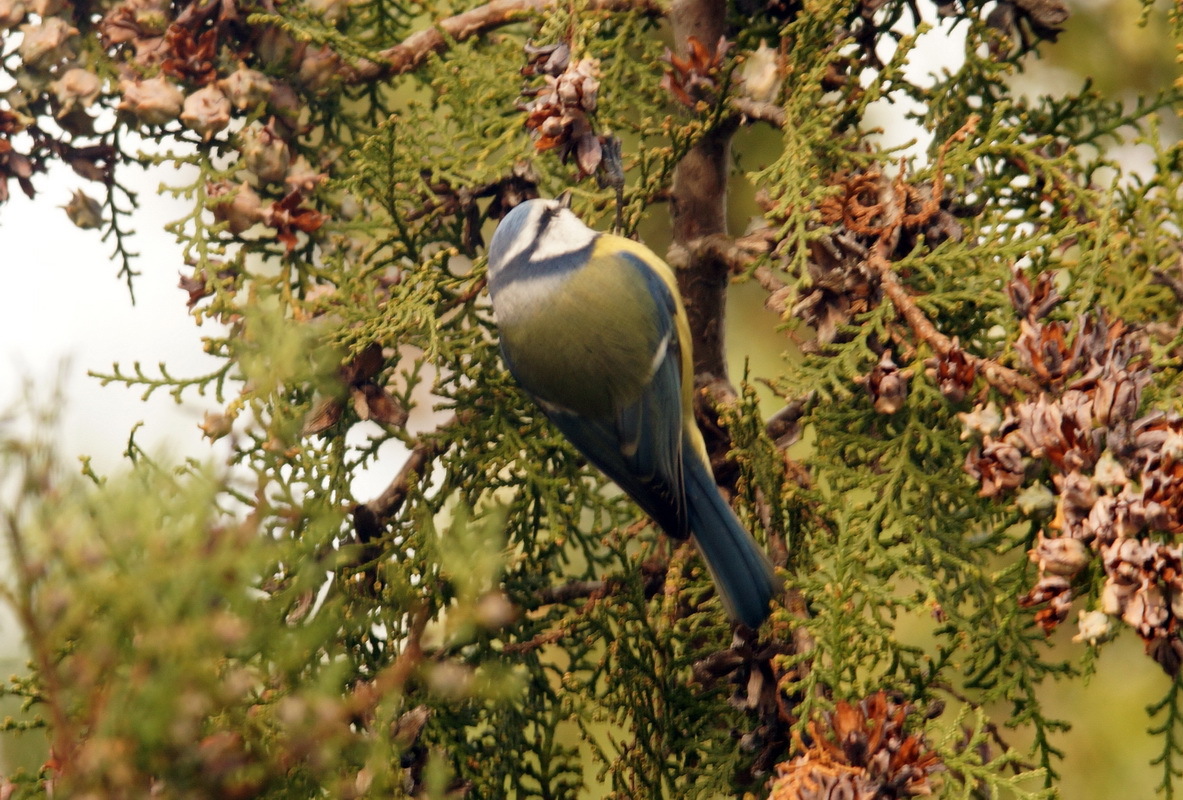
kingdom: Animalia
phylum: Chordata
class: Aves
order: Passeriformes
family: Paridae
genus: Cyanistes
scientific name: Cyanistes caeruleus
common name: Eurasian blue tit
